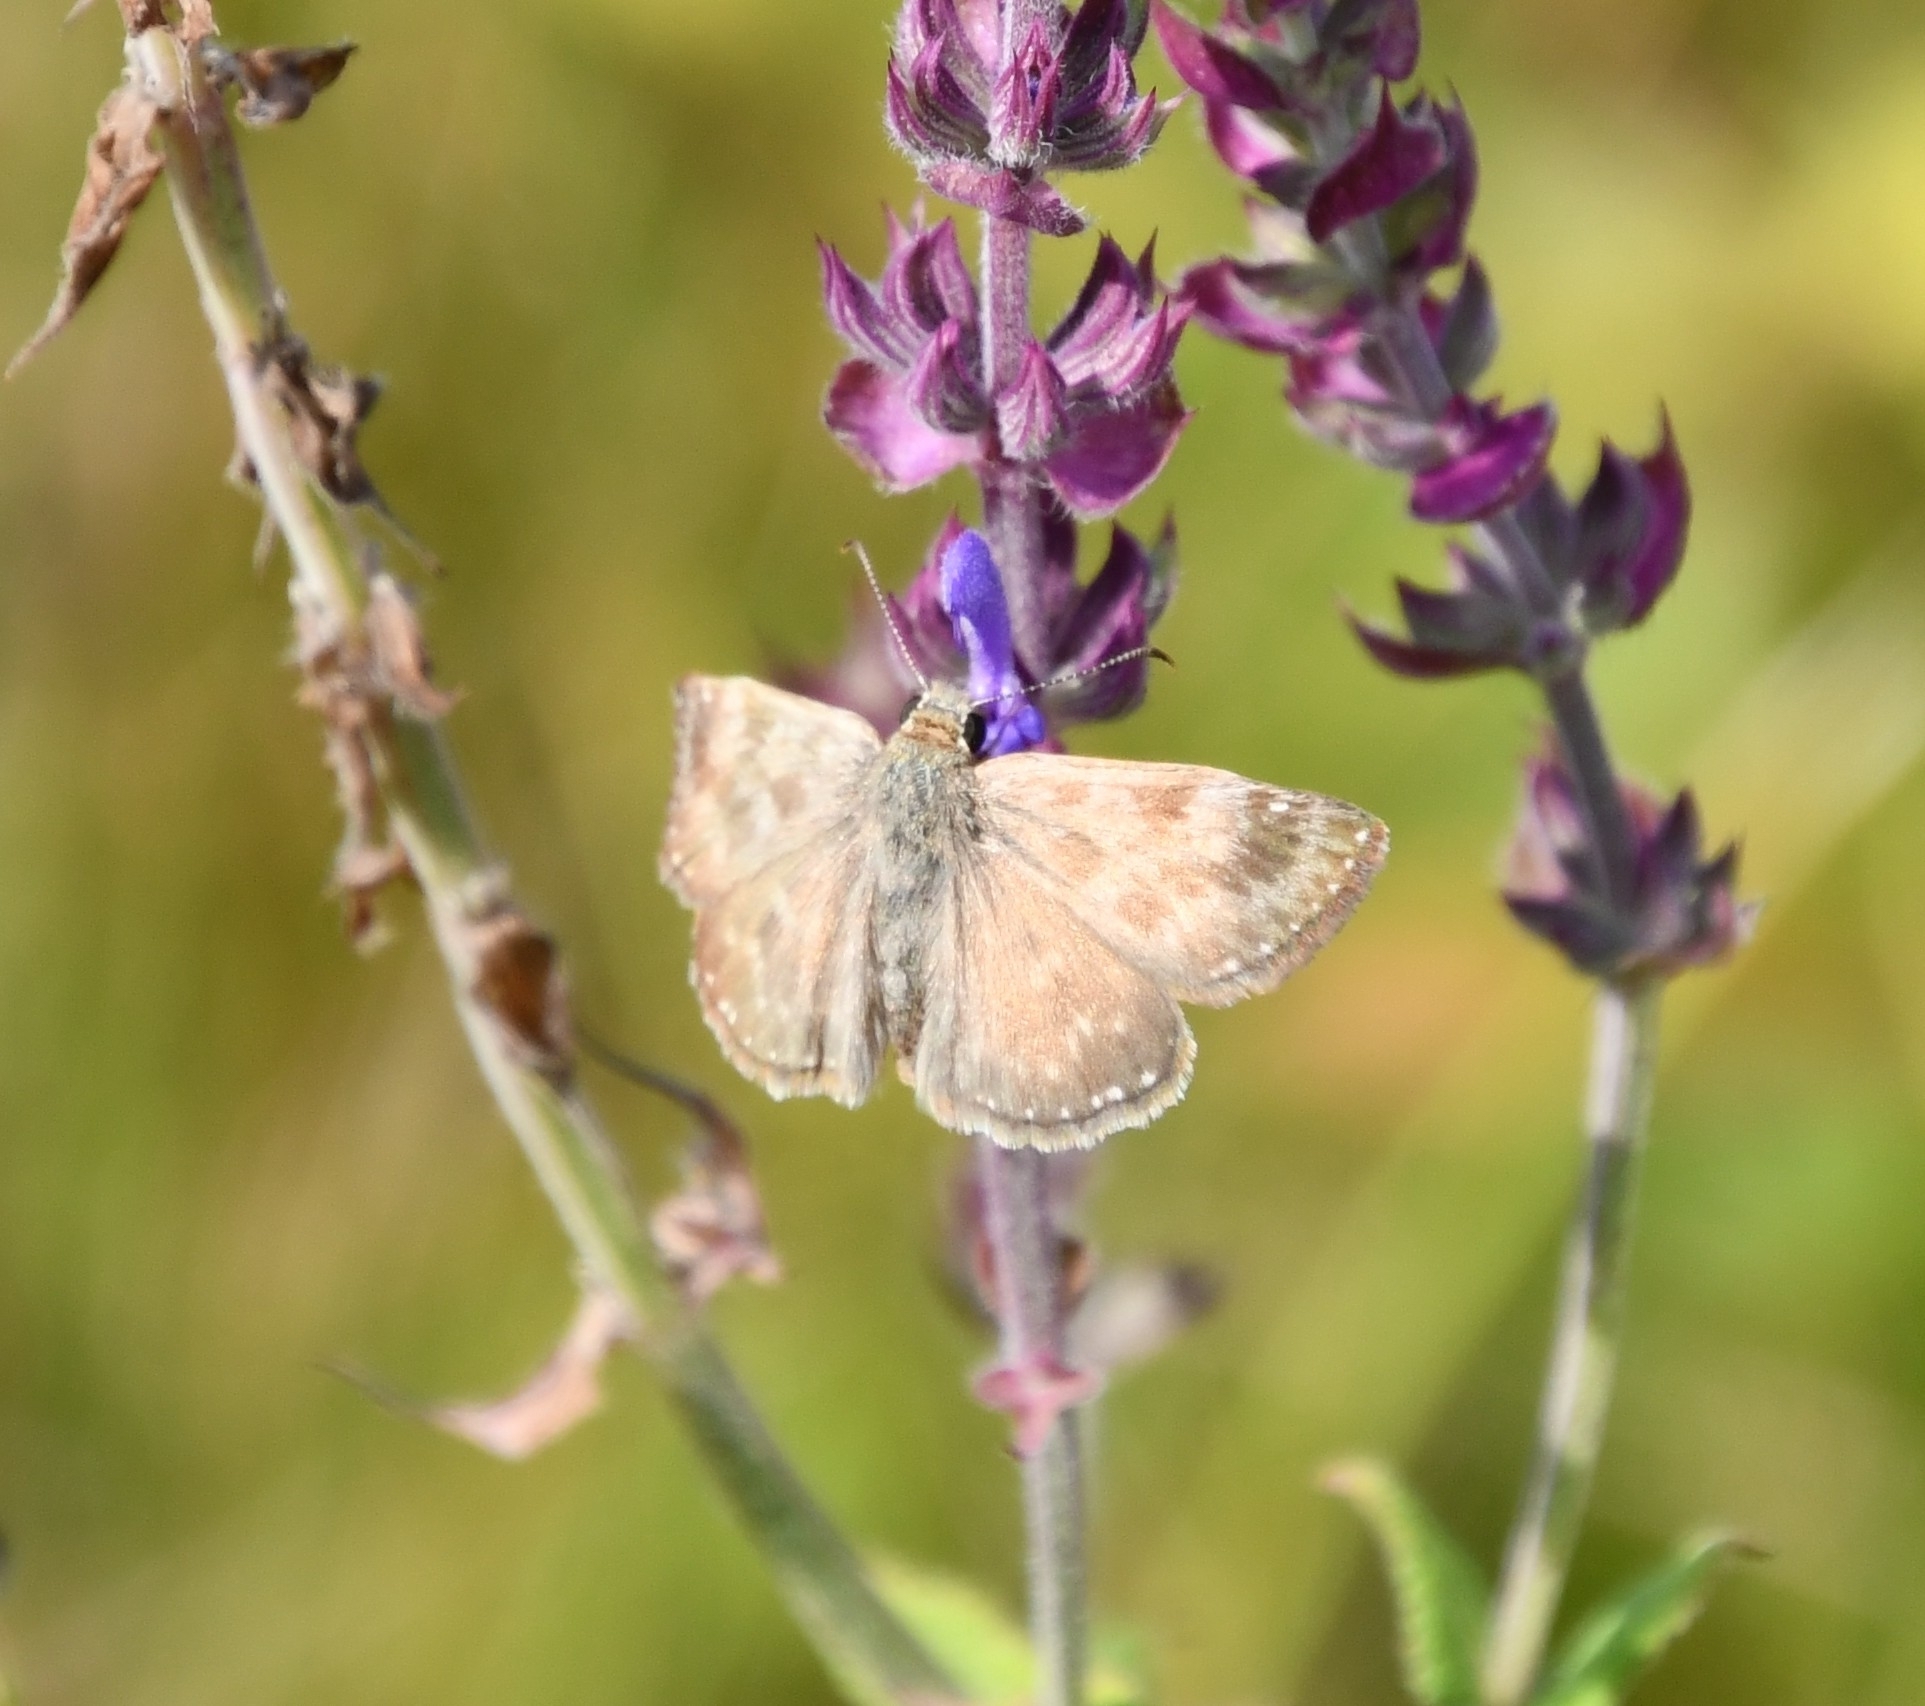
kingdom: Animalia
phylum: Arthropoda
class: Insecta
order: Lepidoptera
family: Hesperiidae
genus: Erynnis
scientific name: Erynnis tages
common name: Dingy skipper
